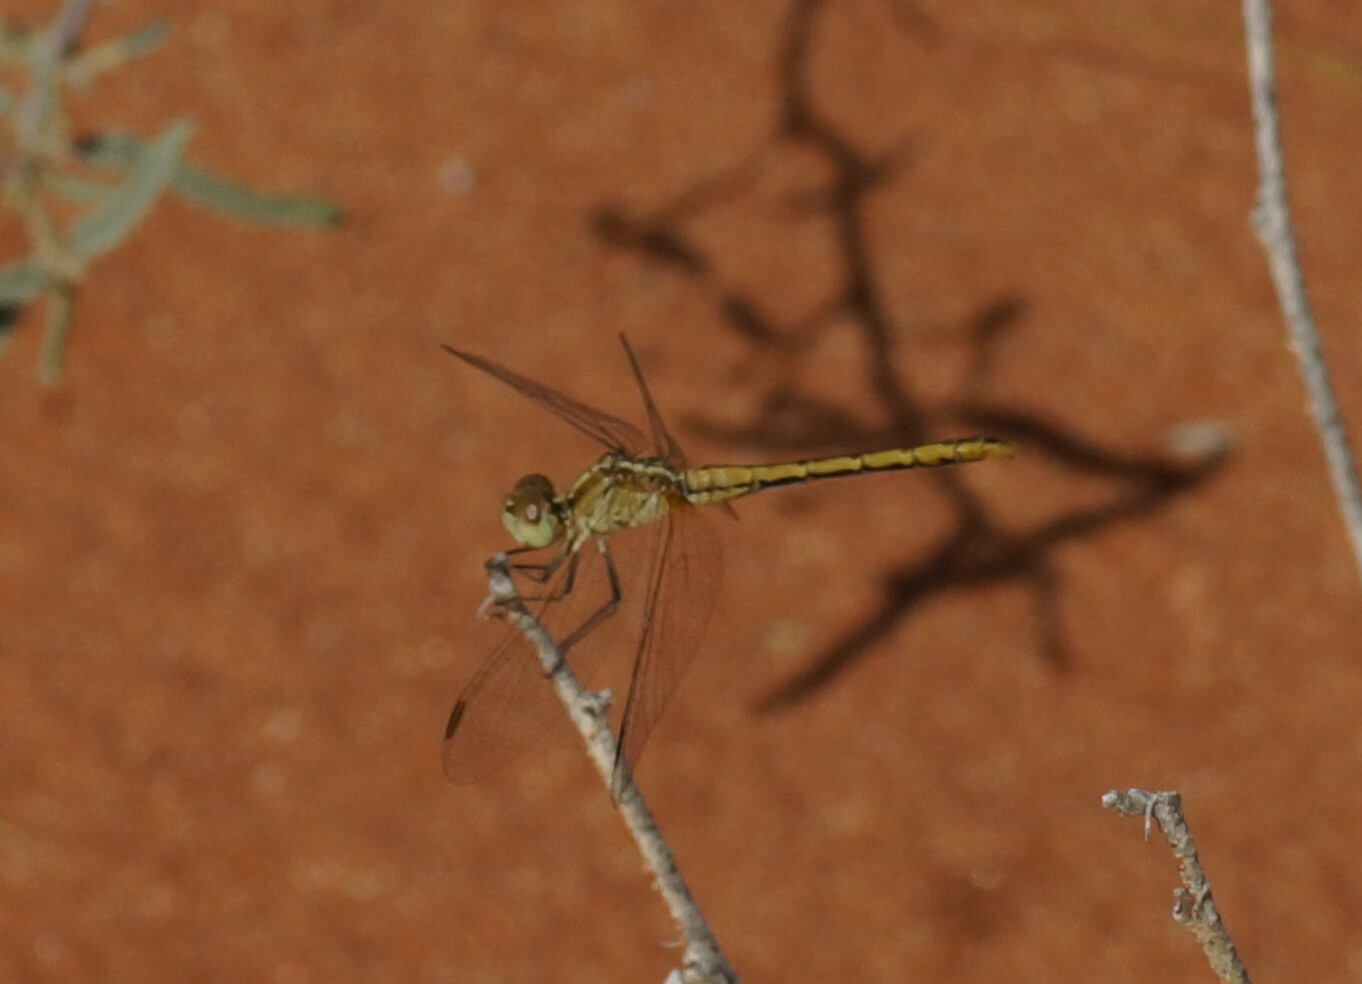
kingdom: Animalia
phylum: Arthropoda
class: Insecta
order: Odonata
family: Libellulidae
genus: Diplacodes
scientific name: Diplacodes bipunctata
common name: Red percher dragonfly
